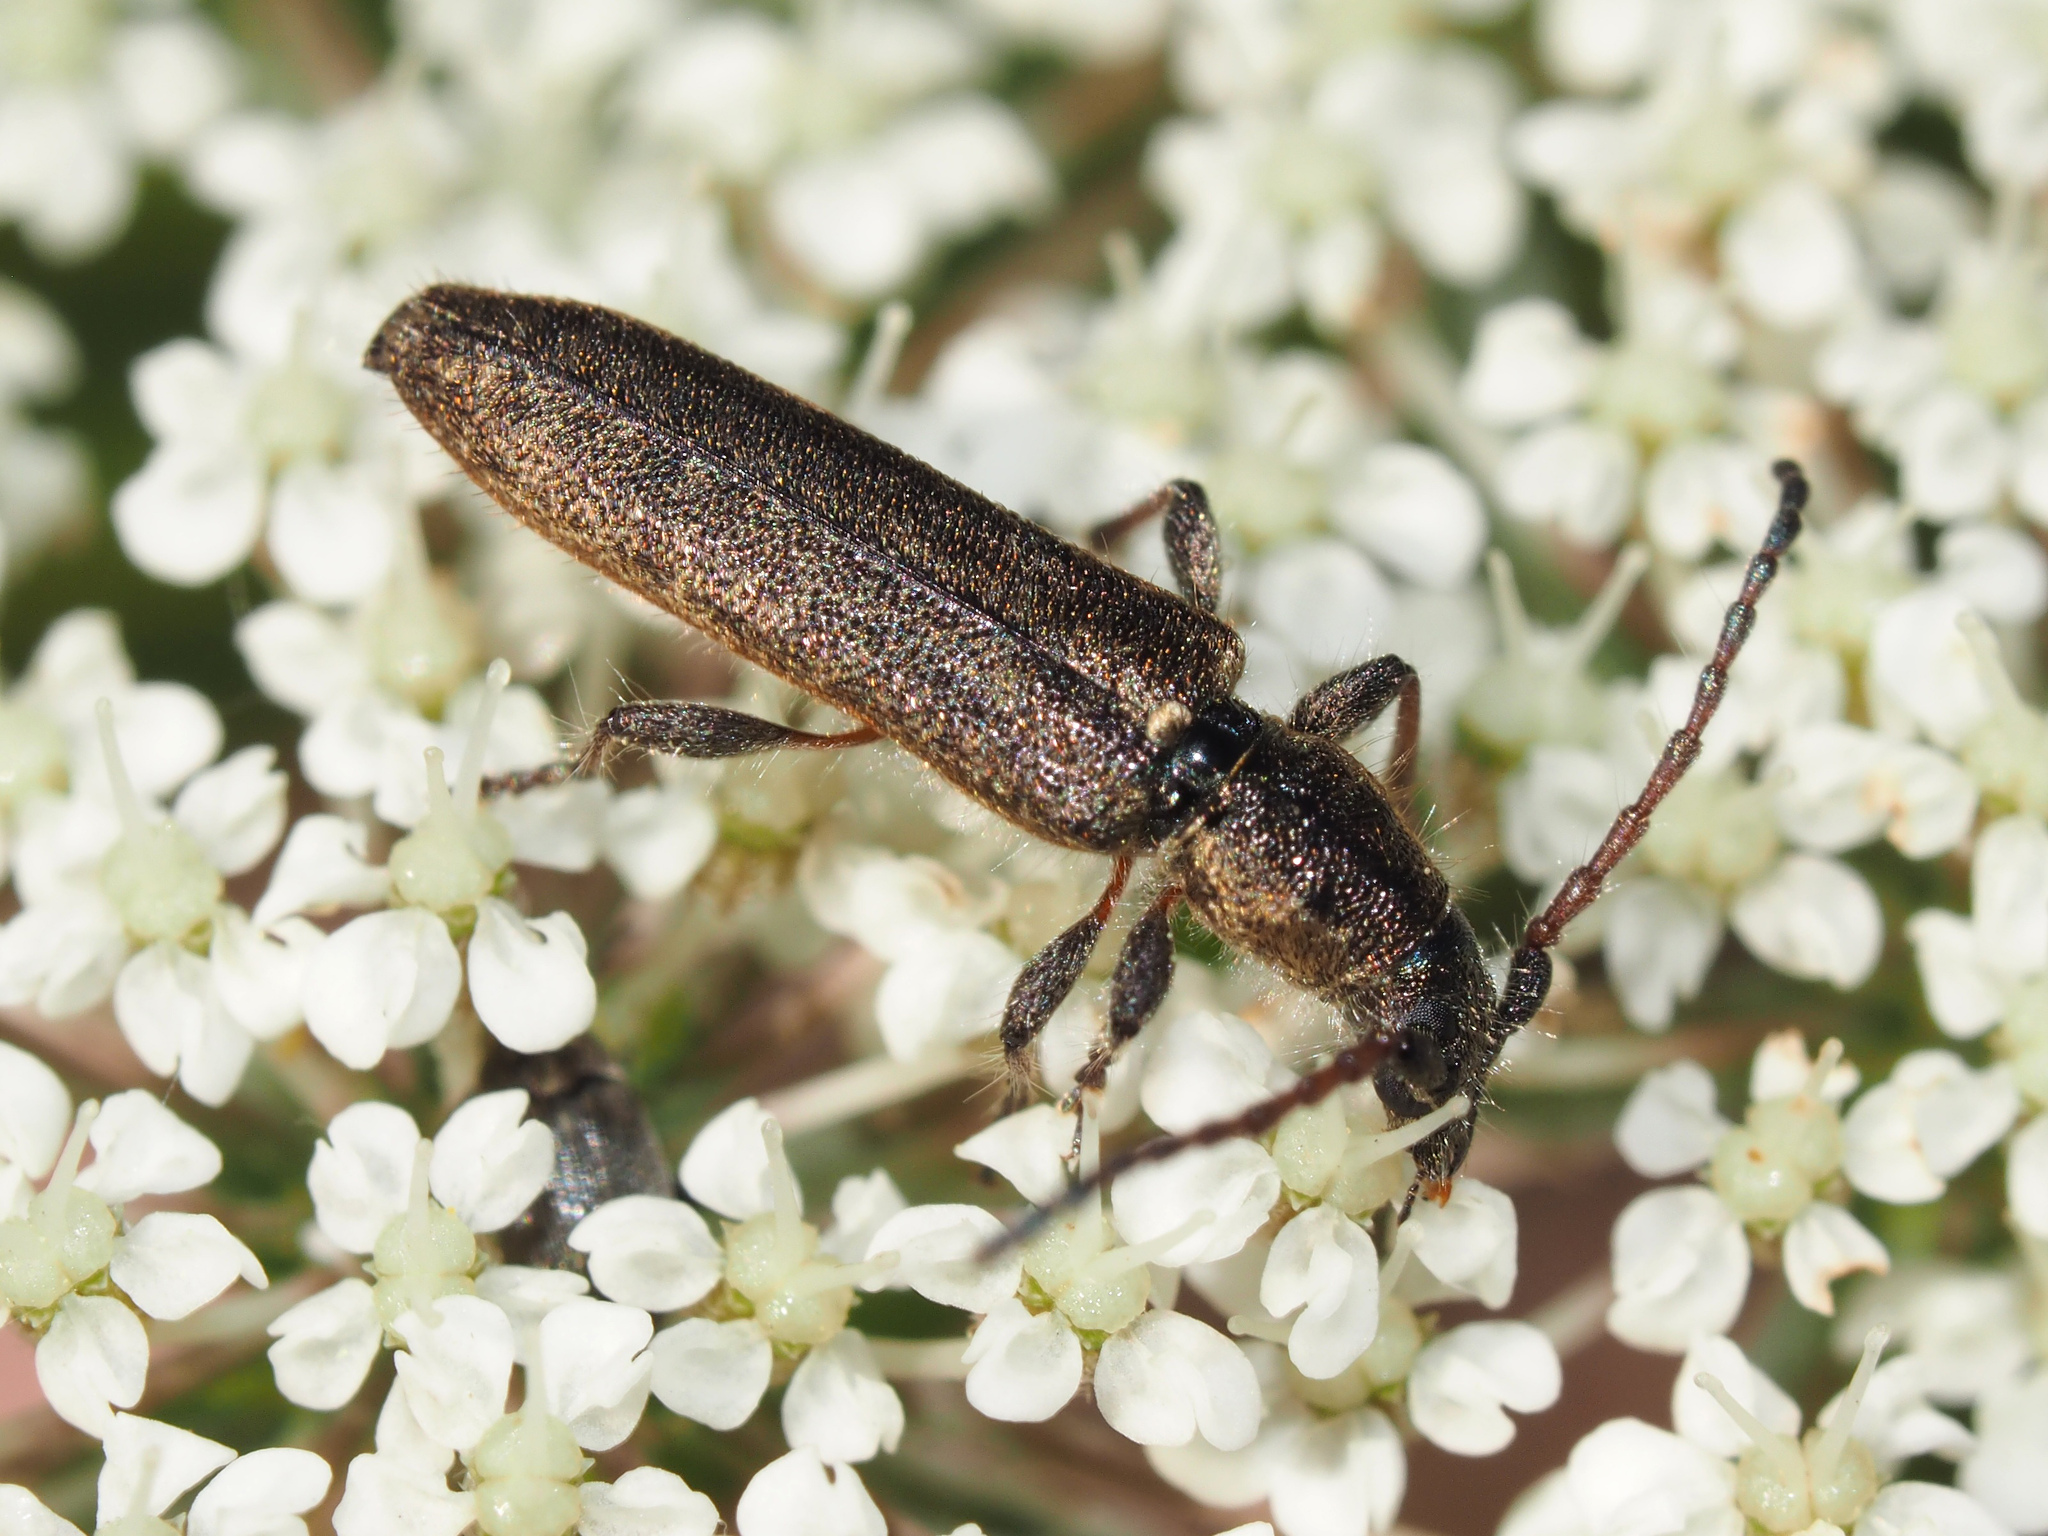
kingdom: Animalia
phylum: Arthropoda
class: Insecta
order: Coleoptera
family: Cerambycidae
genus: Deilus
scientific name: Deilus fugax
